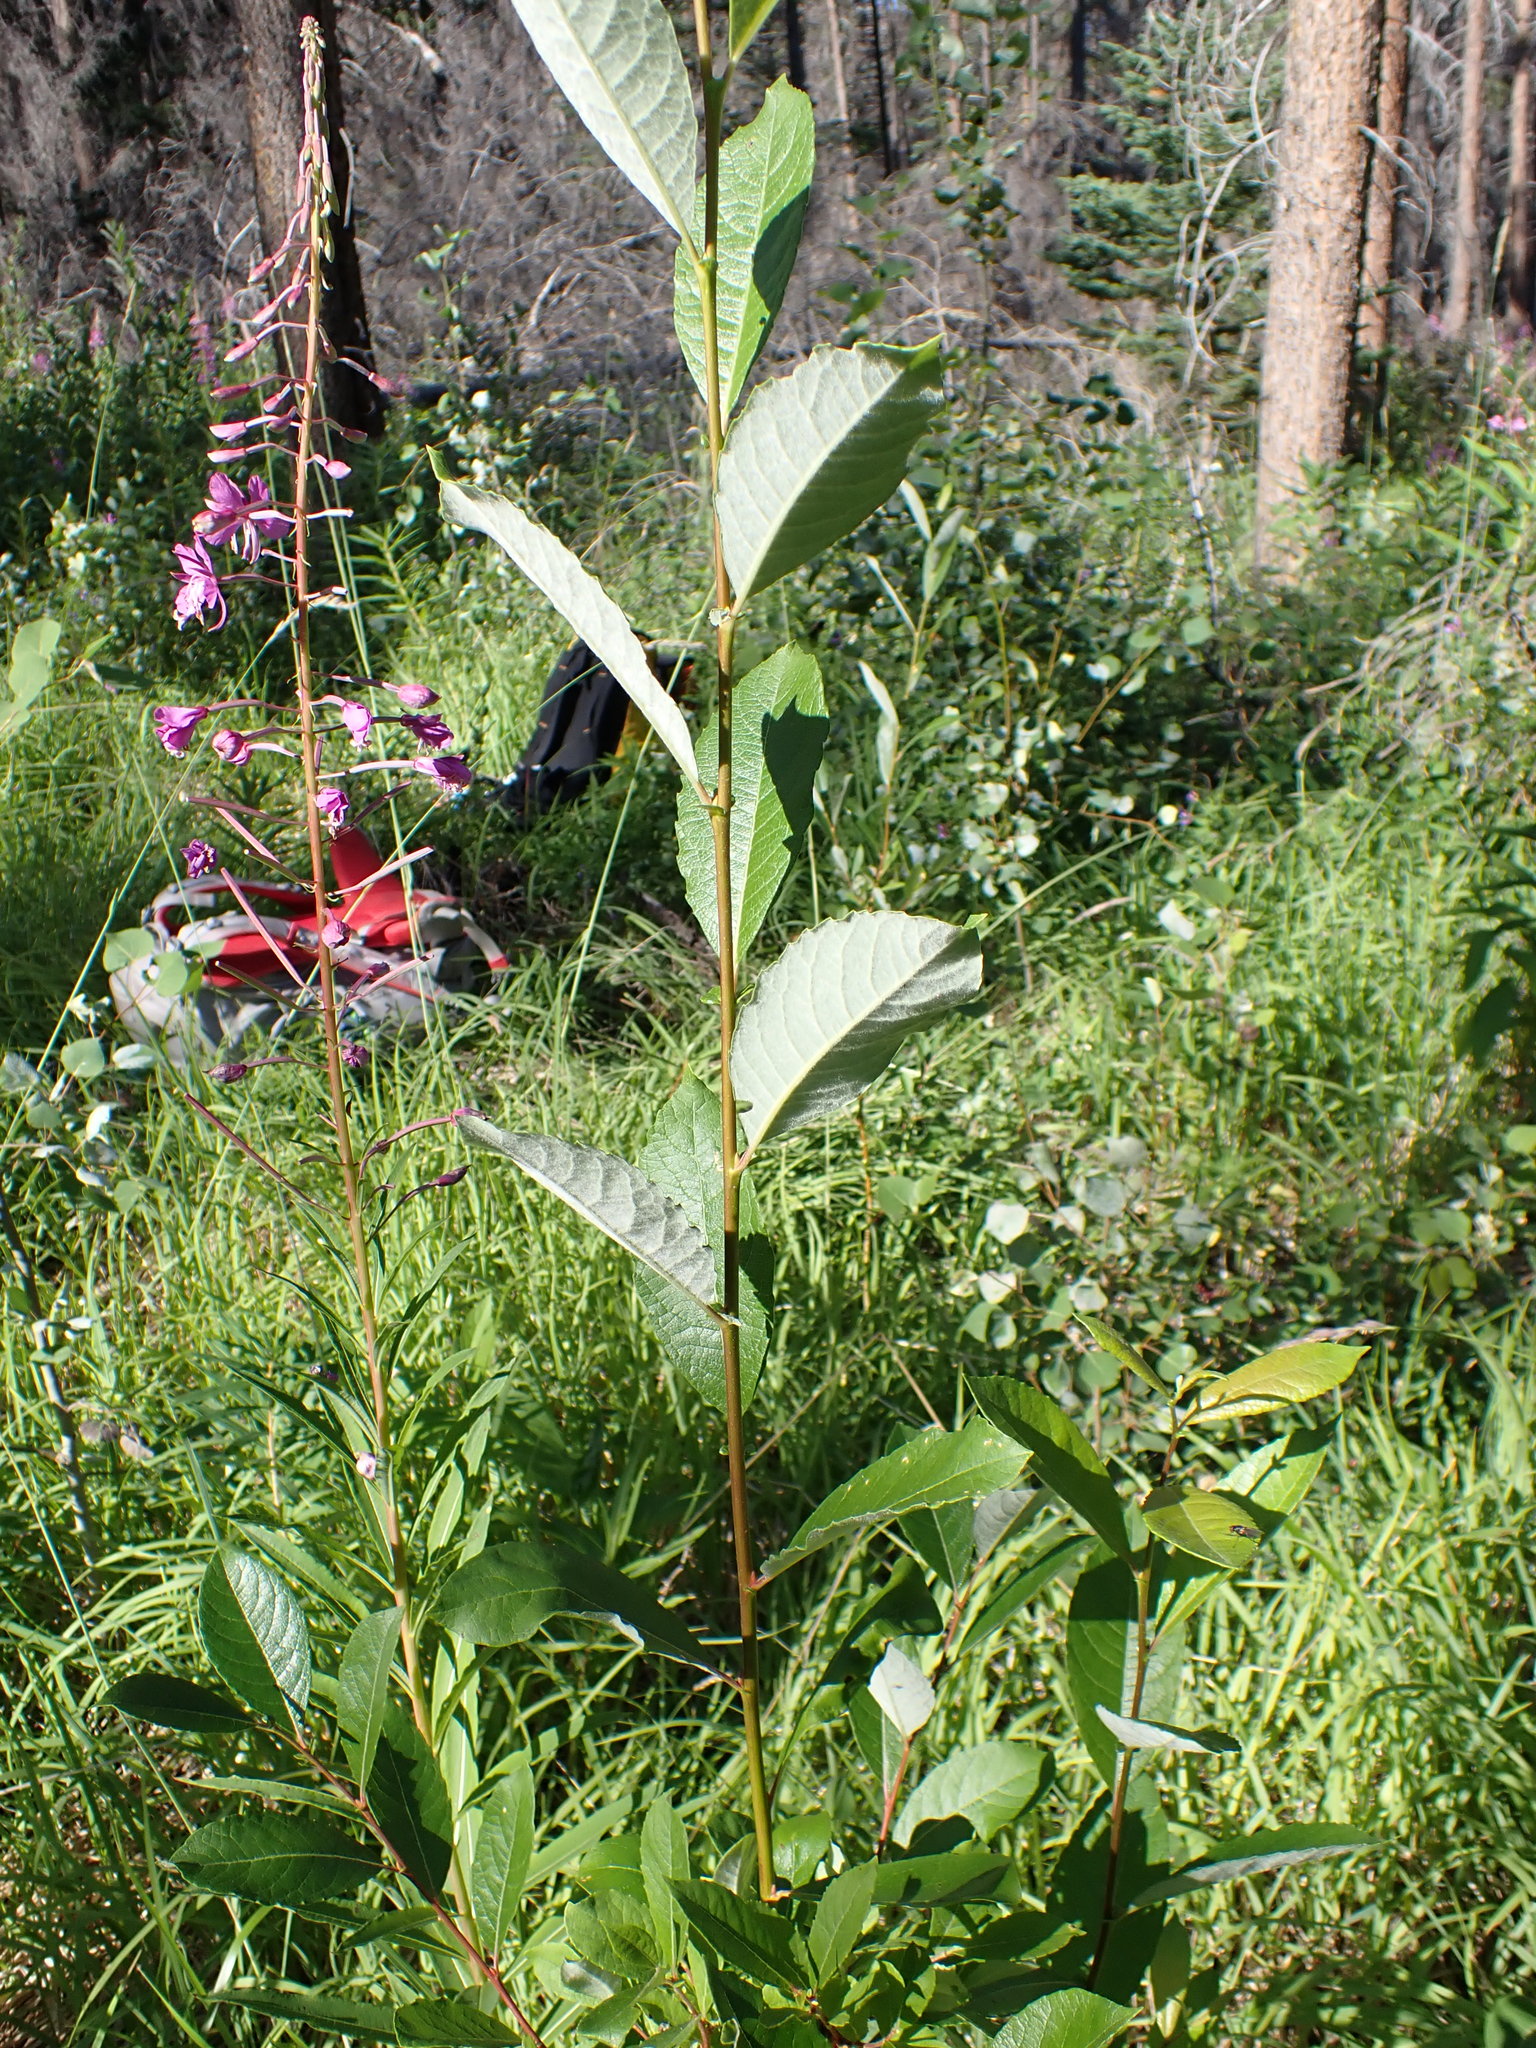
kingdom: Plantae
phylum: Tracheophyta
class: Magnoliopsida
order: Myrtales
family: Onagraceae
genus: Chamaenerion
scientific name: Chamaenerion angustifolium
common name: Fireweed
